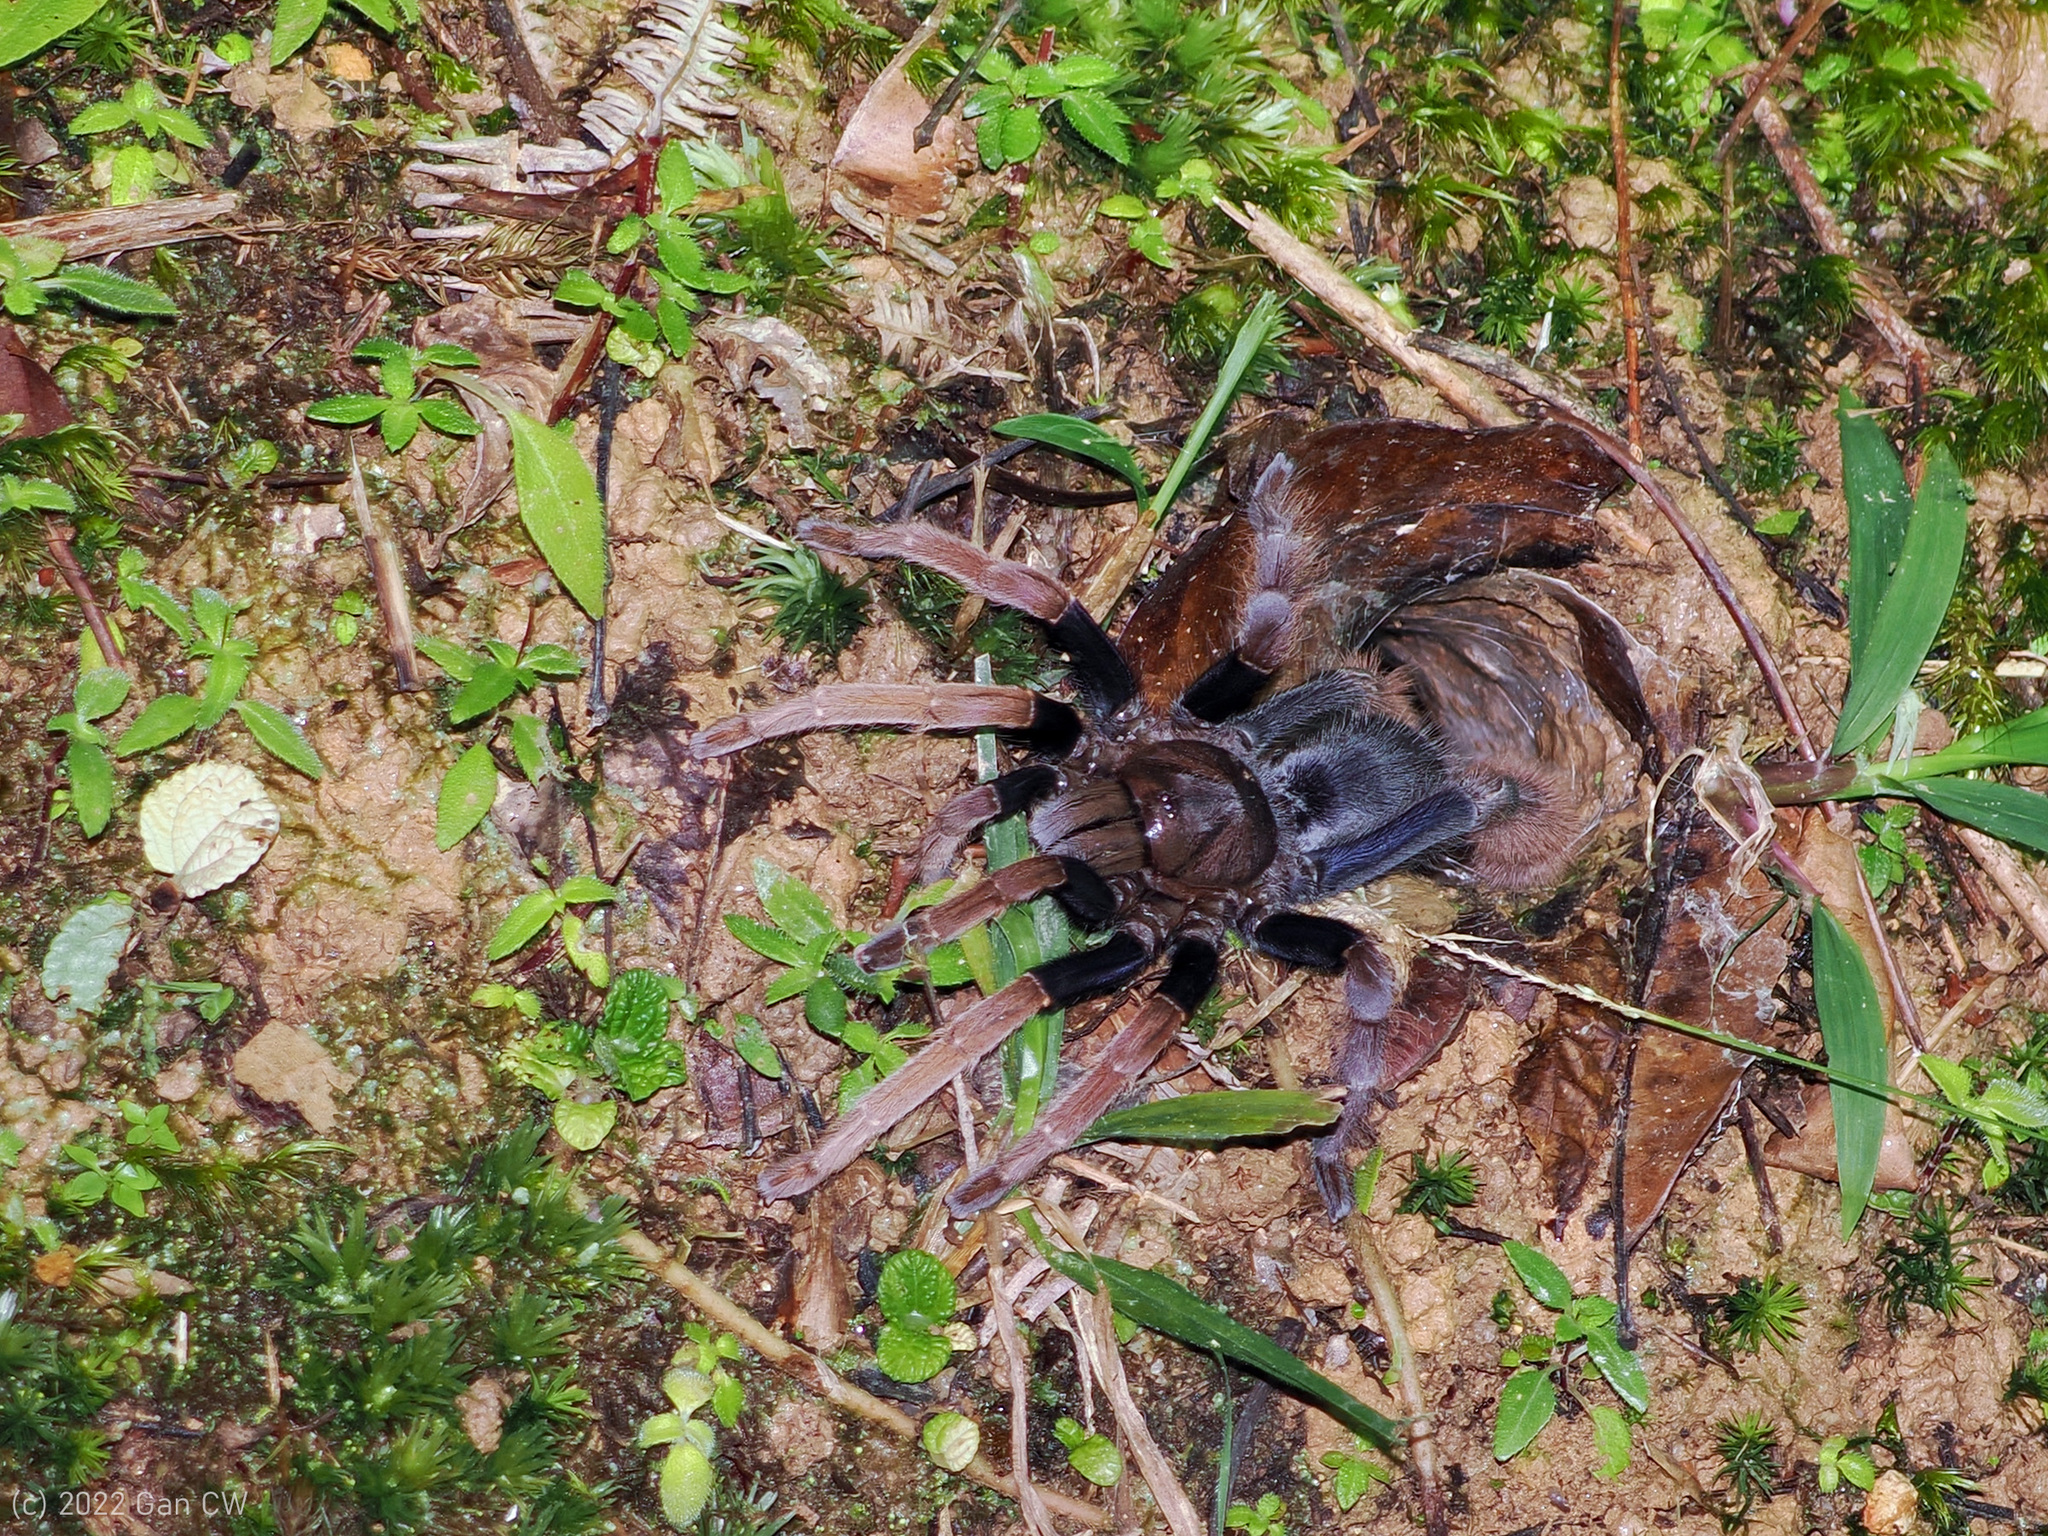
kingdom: Animalia
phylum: Arthropoda
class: Arachnida
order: Araneae
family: Theraphosidae
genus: Coremiocnemis
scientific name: Coremiocnemis hoggi
